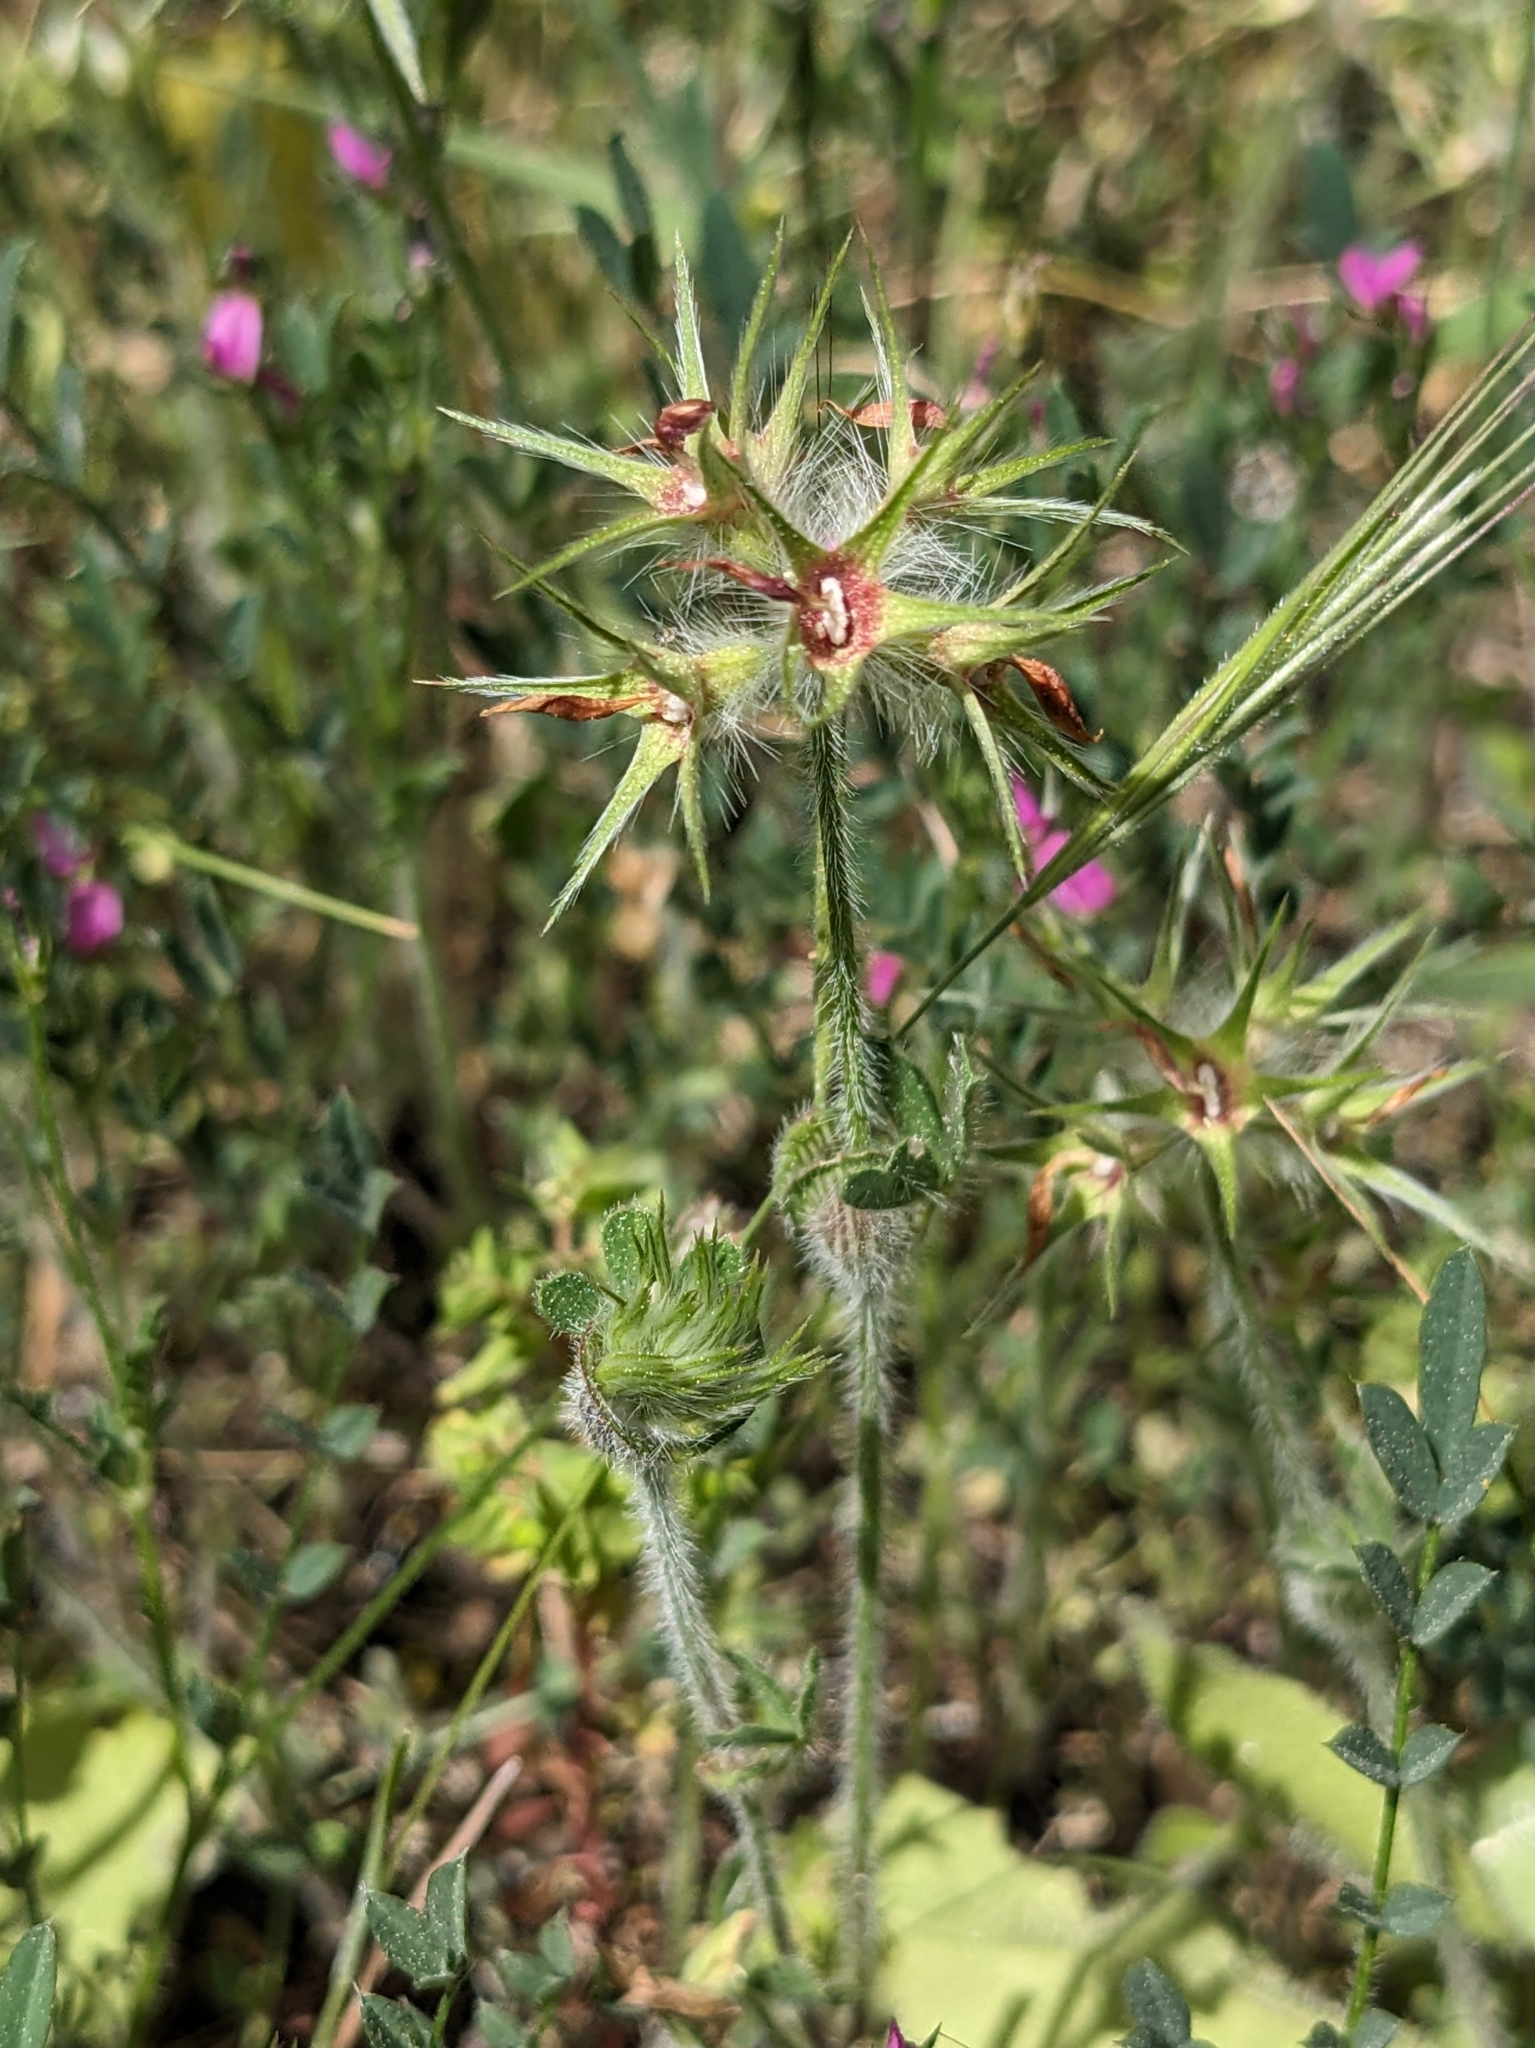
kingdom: Plantae
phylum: Tracheophyta
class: Magnoliopsida
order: Fabales
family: Fabaceae
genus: Trifolium
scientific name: Trifolium stellatum
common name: Starry clover
